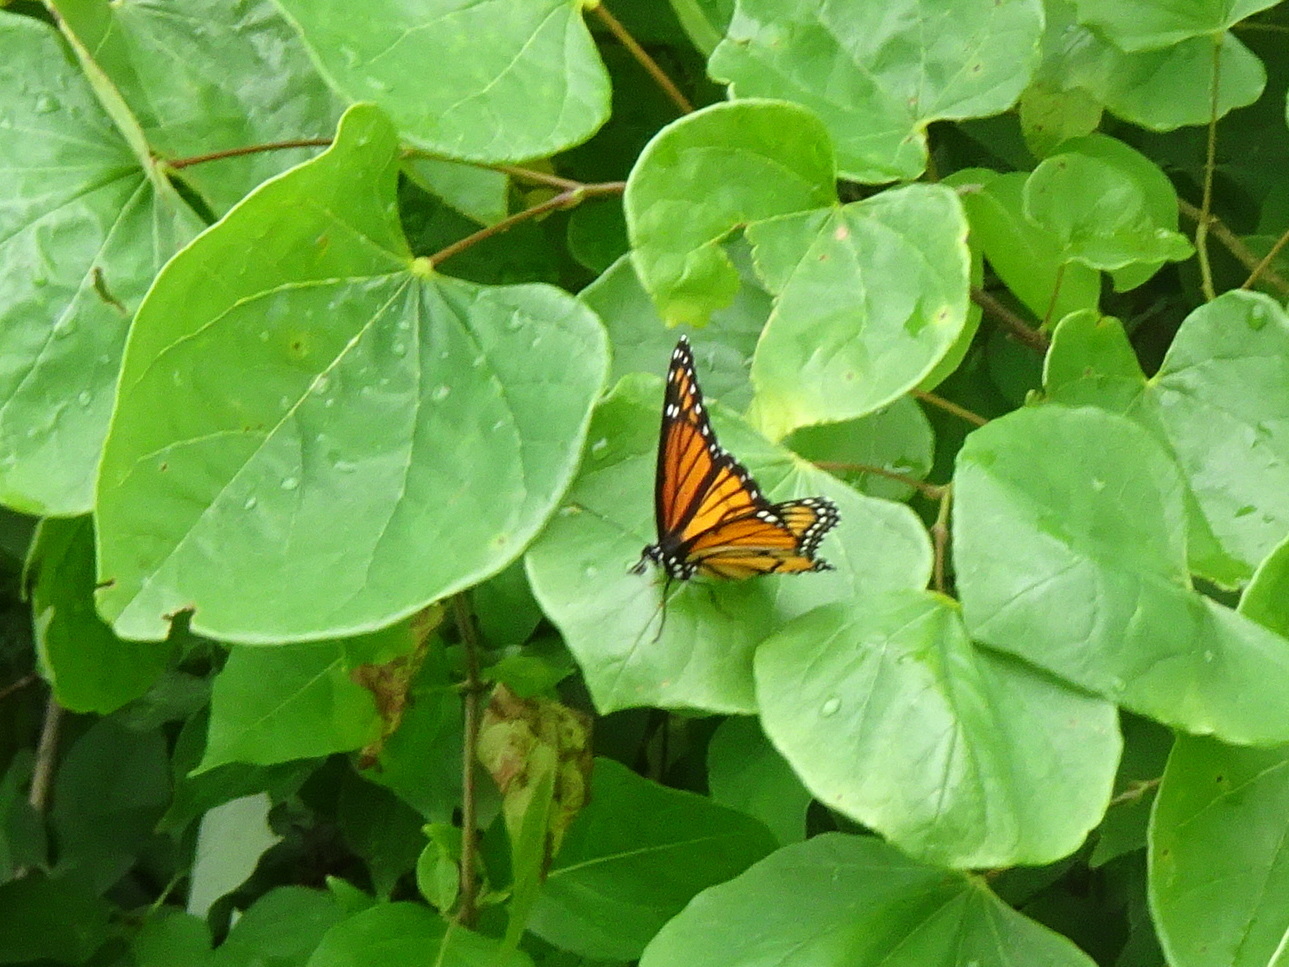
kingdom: Animalia
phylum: Arthropoda
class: Insecta
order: Lepidoptera
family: Nymphalidae
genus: Limenitis
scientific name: Limenitis archippus
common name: Viceroy
